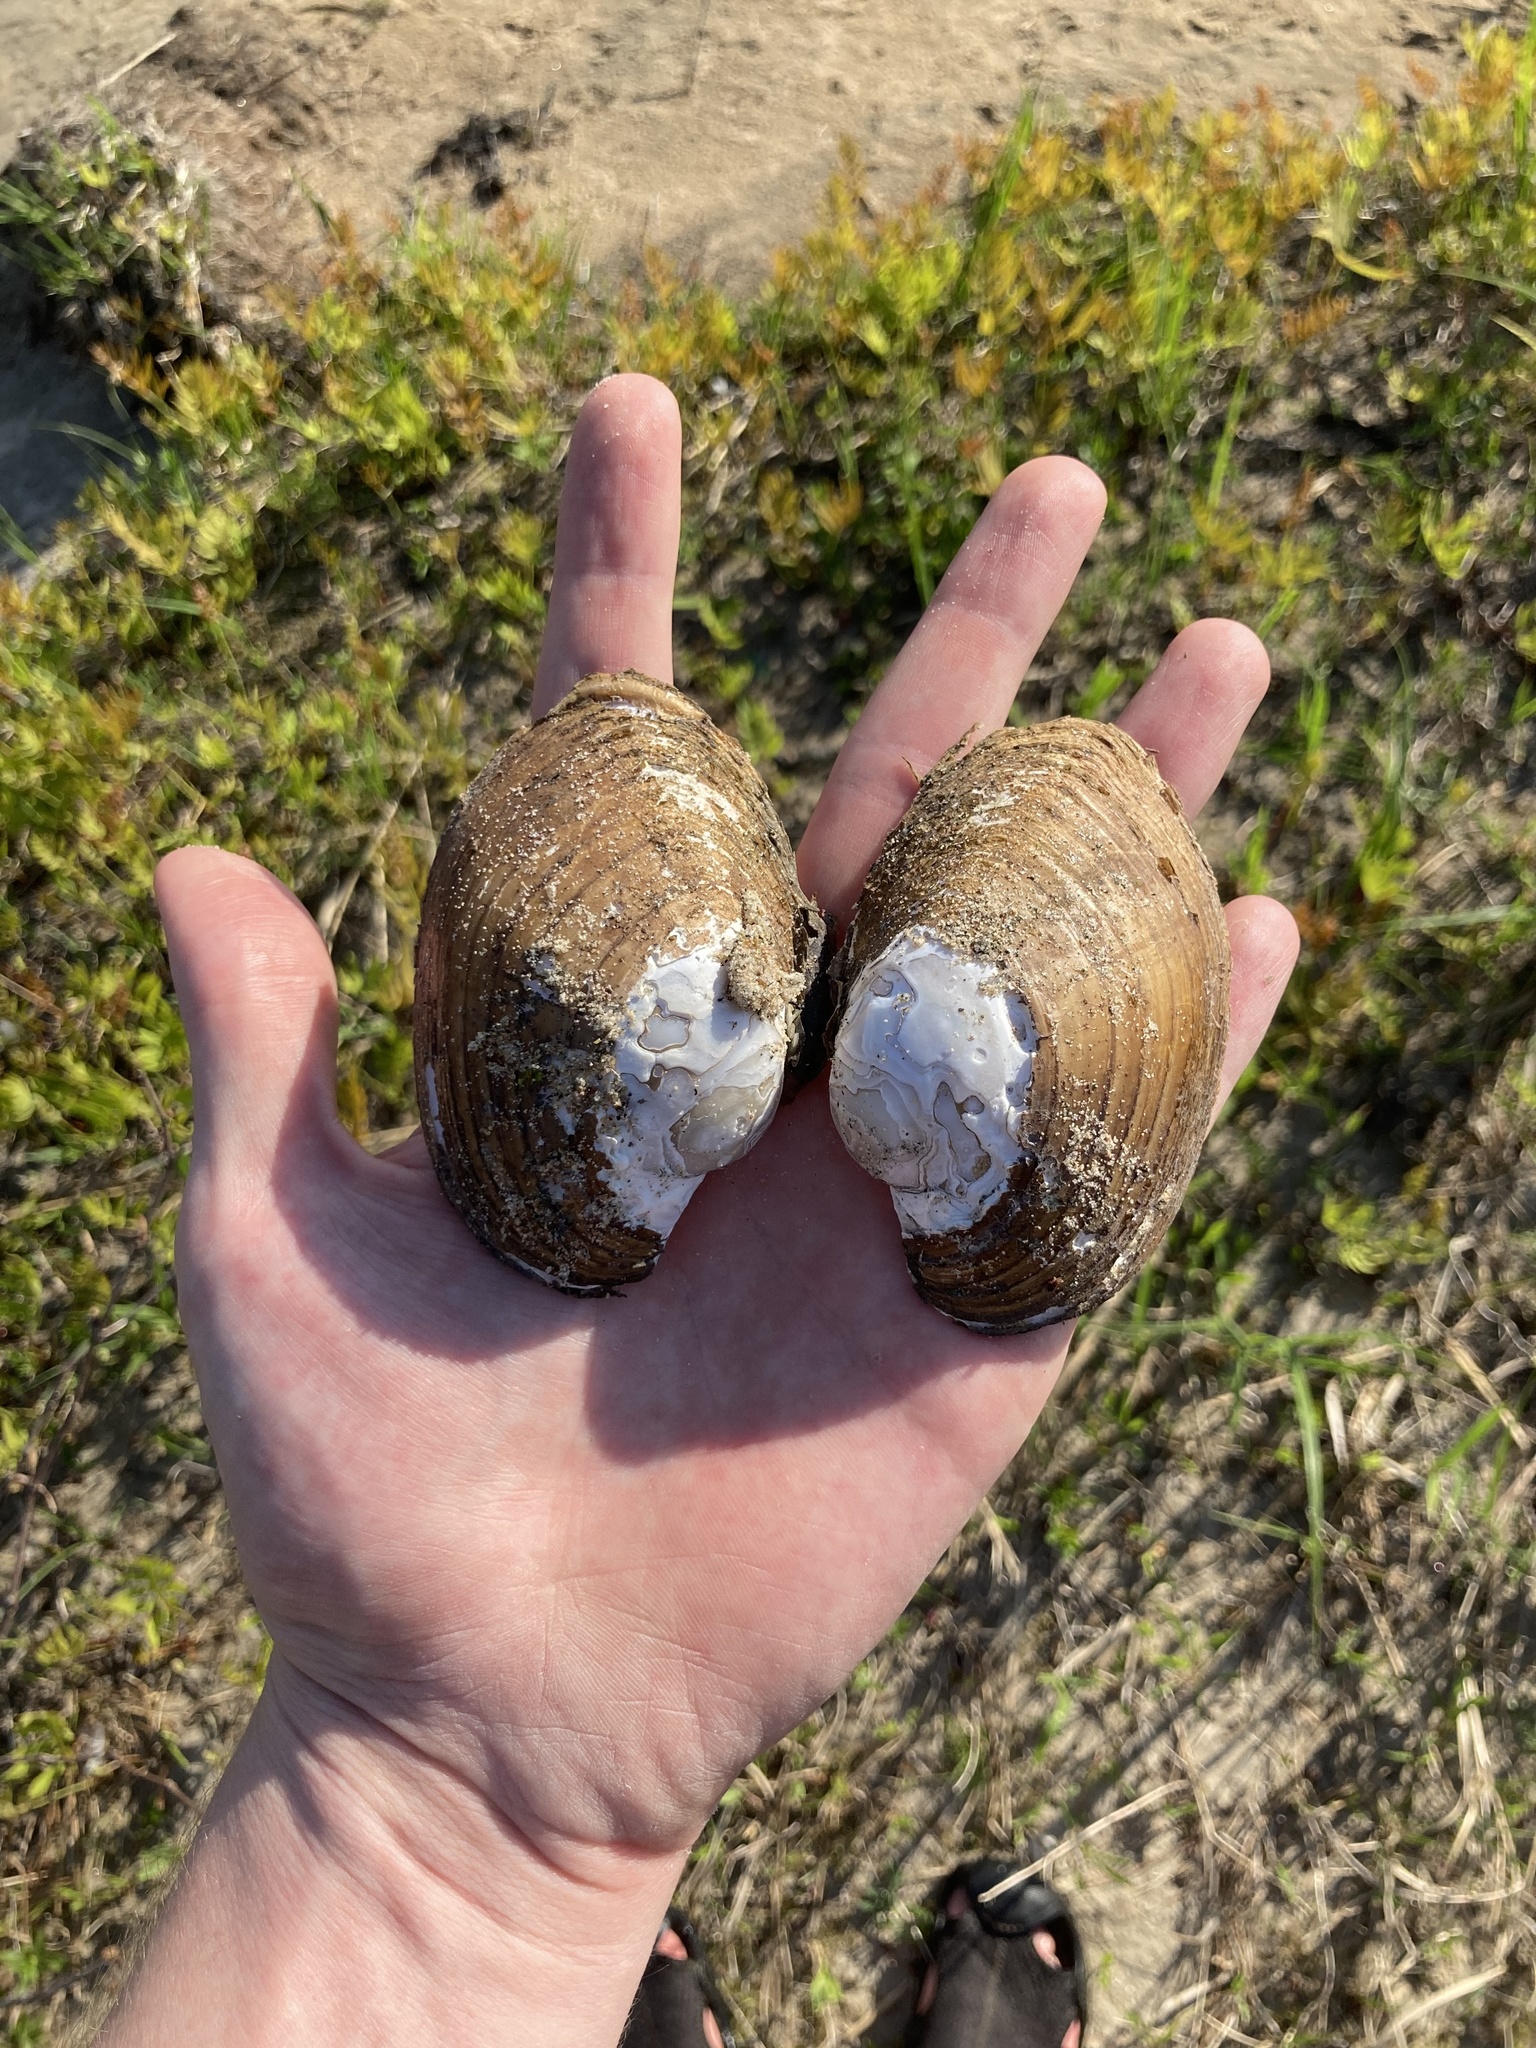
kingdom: Animalia
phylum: Mollusca
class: Bivalvia
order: Unionida
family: Unionidae
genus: Lampsilis
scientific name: Lampsilis cardium
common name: Plain pocketbook
